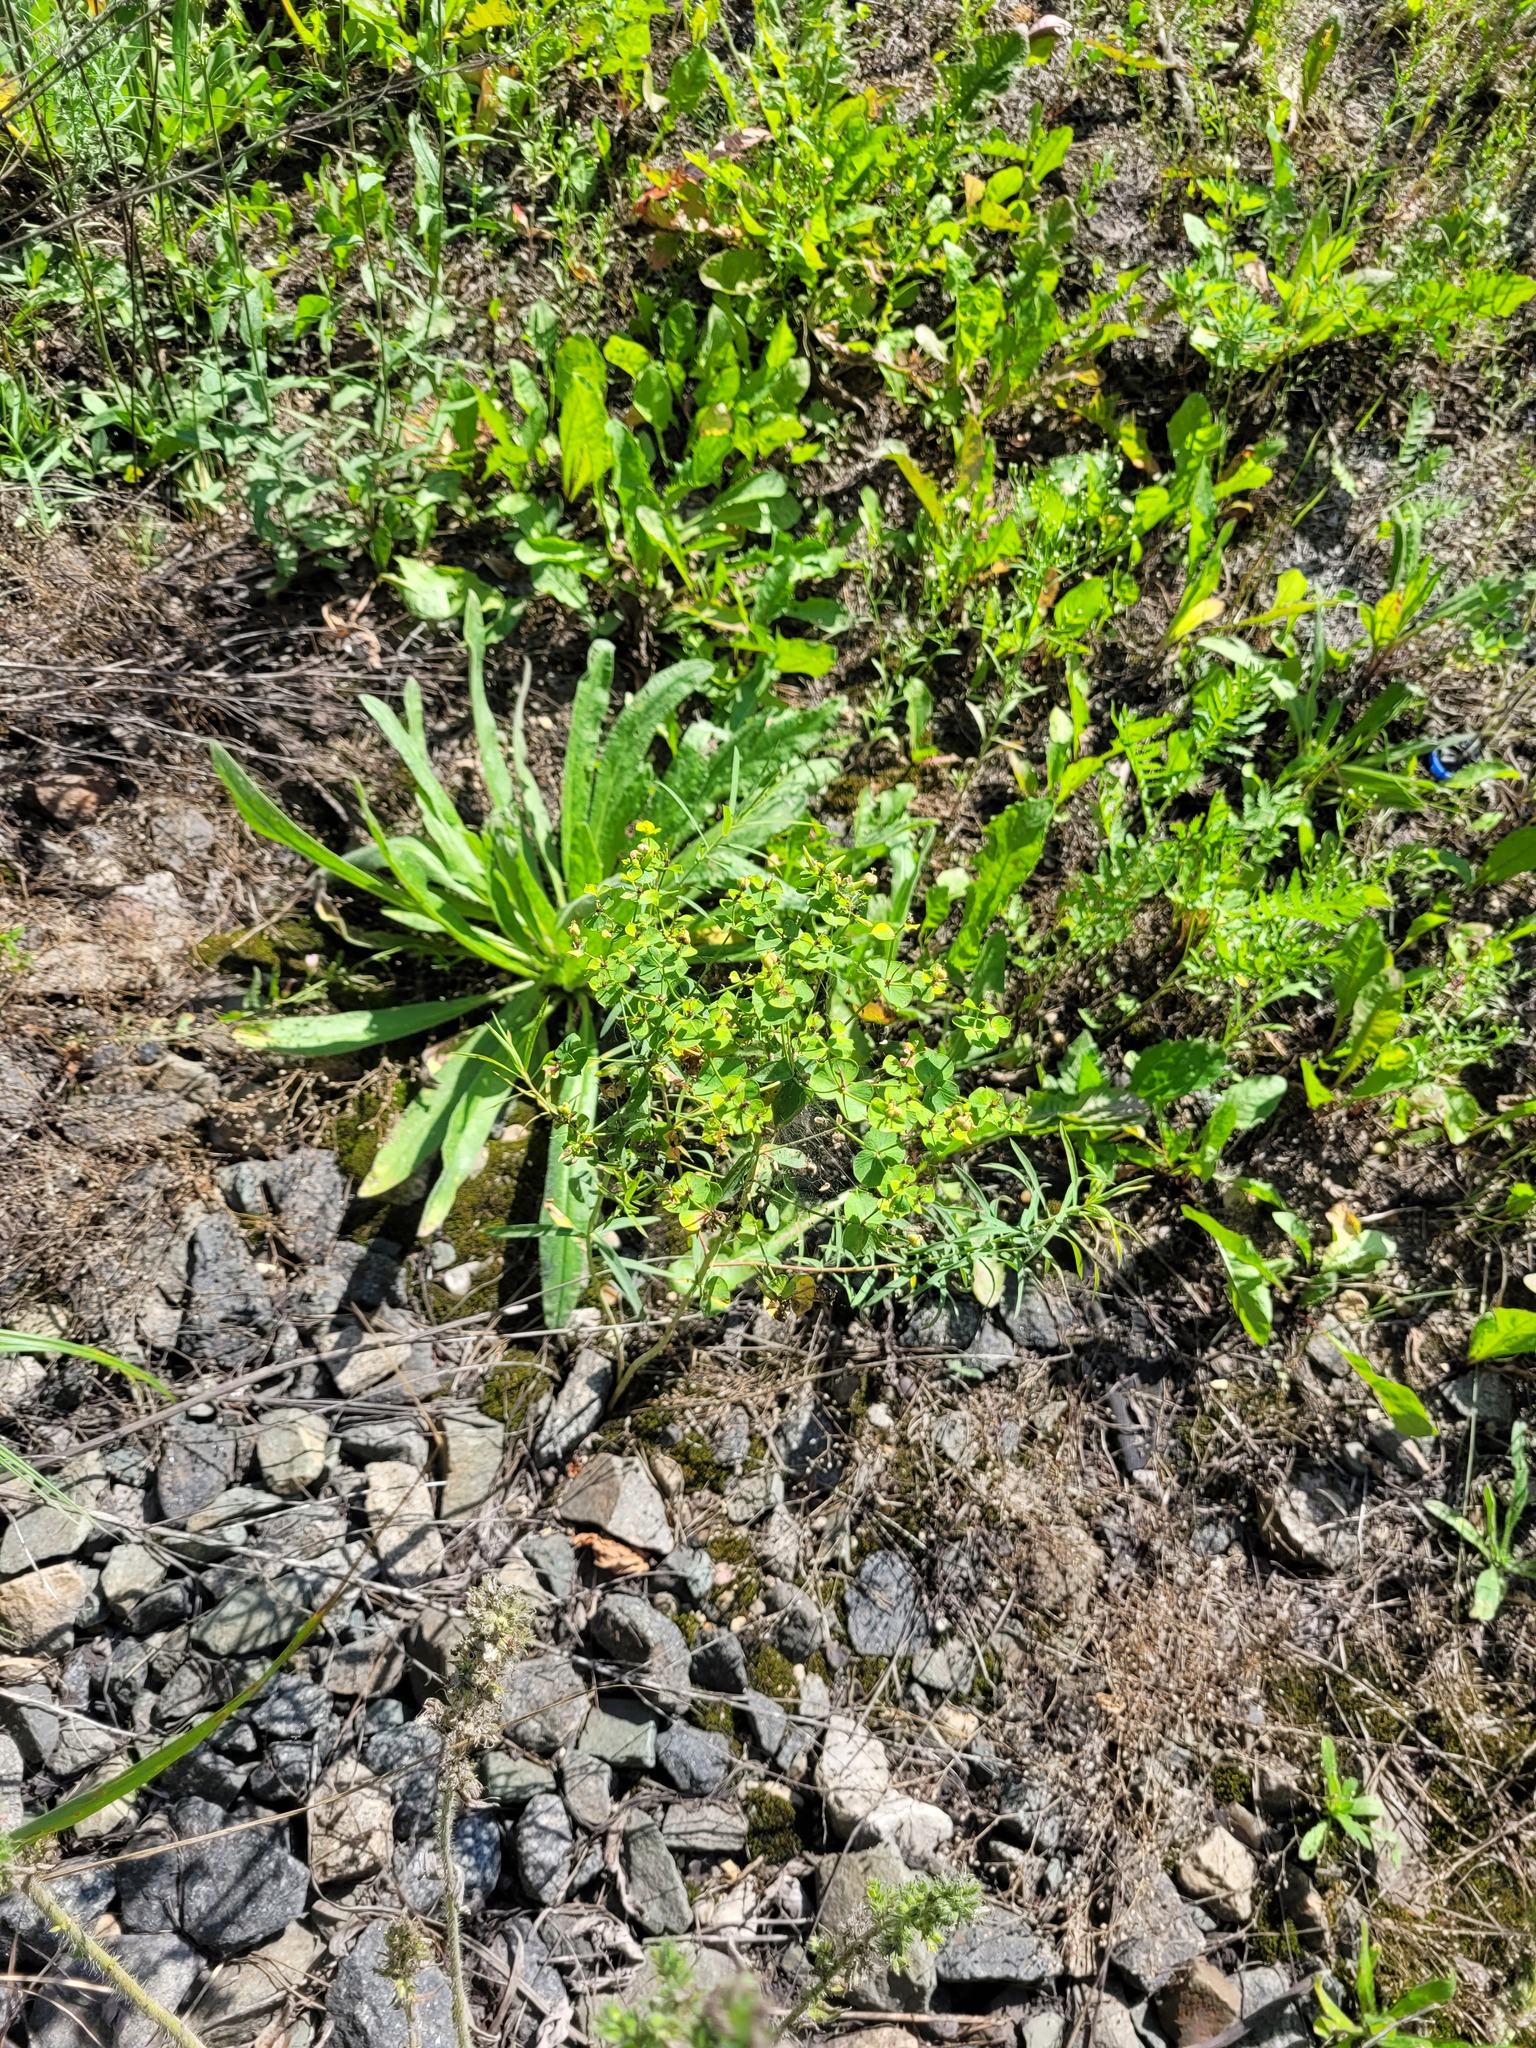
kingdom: Plantae
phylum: Tracheophyta
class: Magnoliopsida
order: Malpighiales
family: Euphorbiaceae
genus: Euphorbia
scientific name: Euphorbia virgata
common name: Leafy spurge
